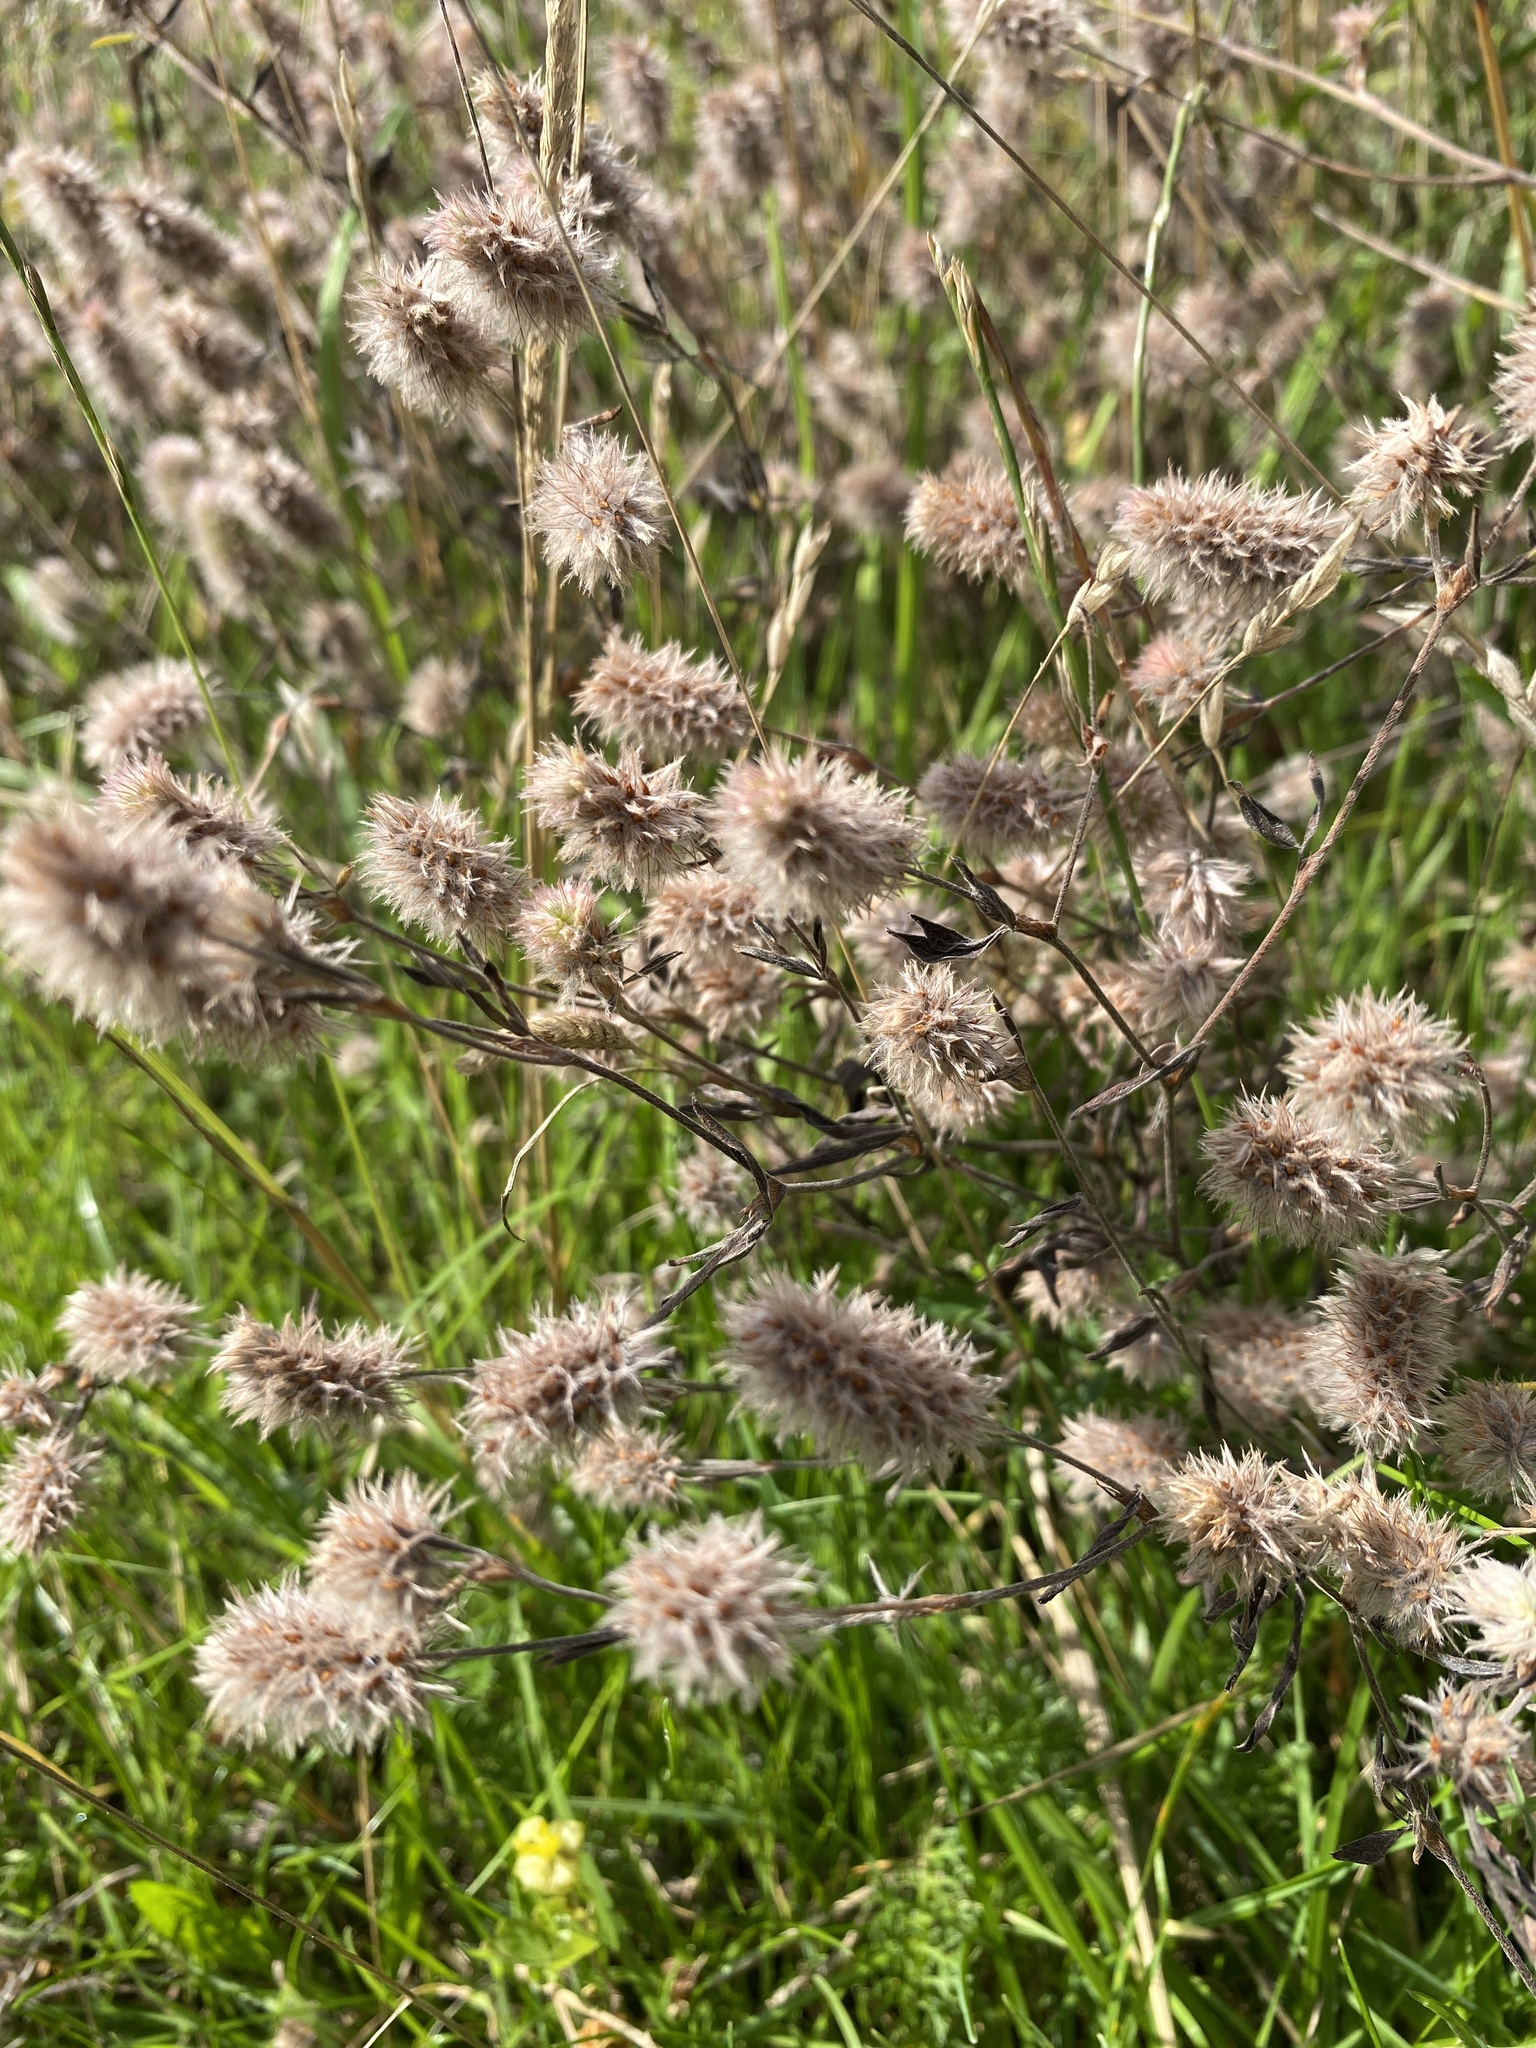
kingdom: Plantae
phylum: Tracheophyta
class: Magnoliopsida
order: Fabales
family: Fabaceae
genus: Trifolium
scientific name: Trifolium arvense
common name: Hare's-foot clover
